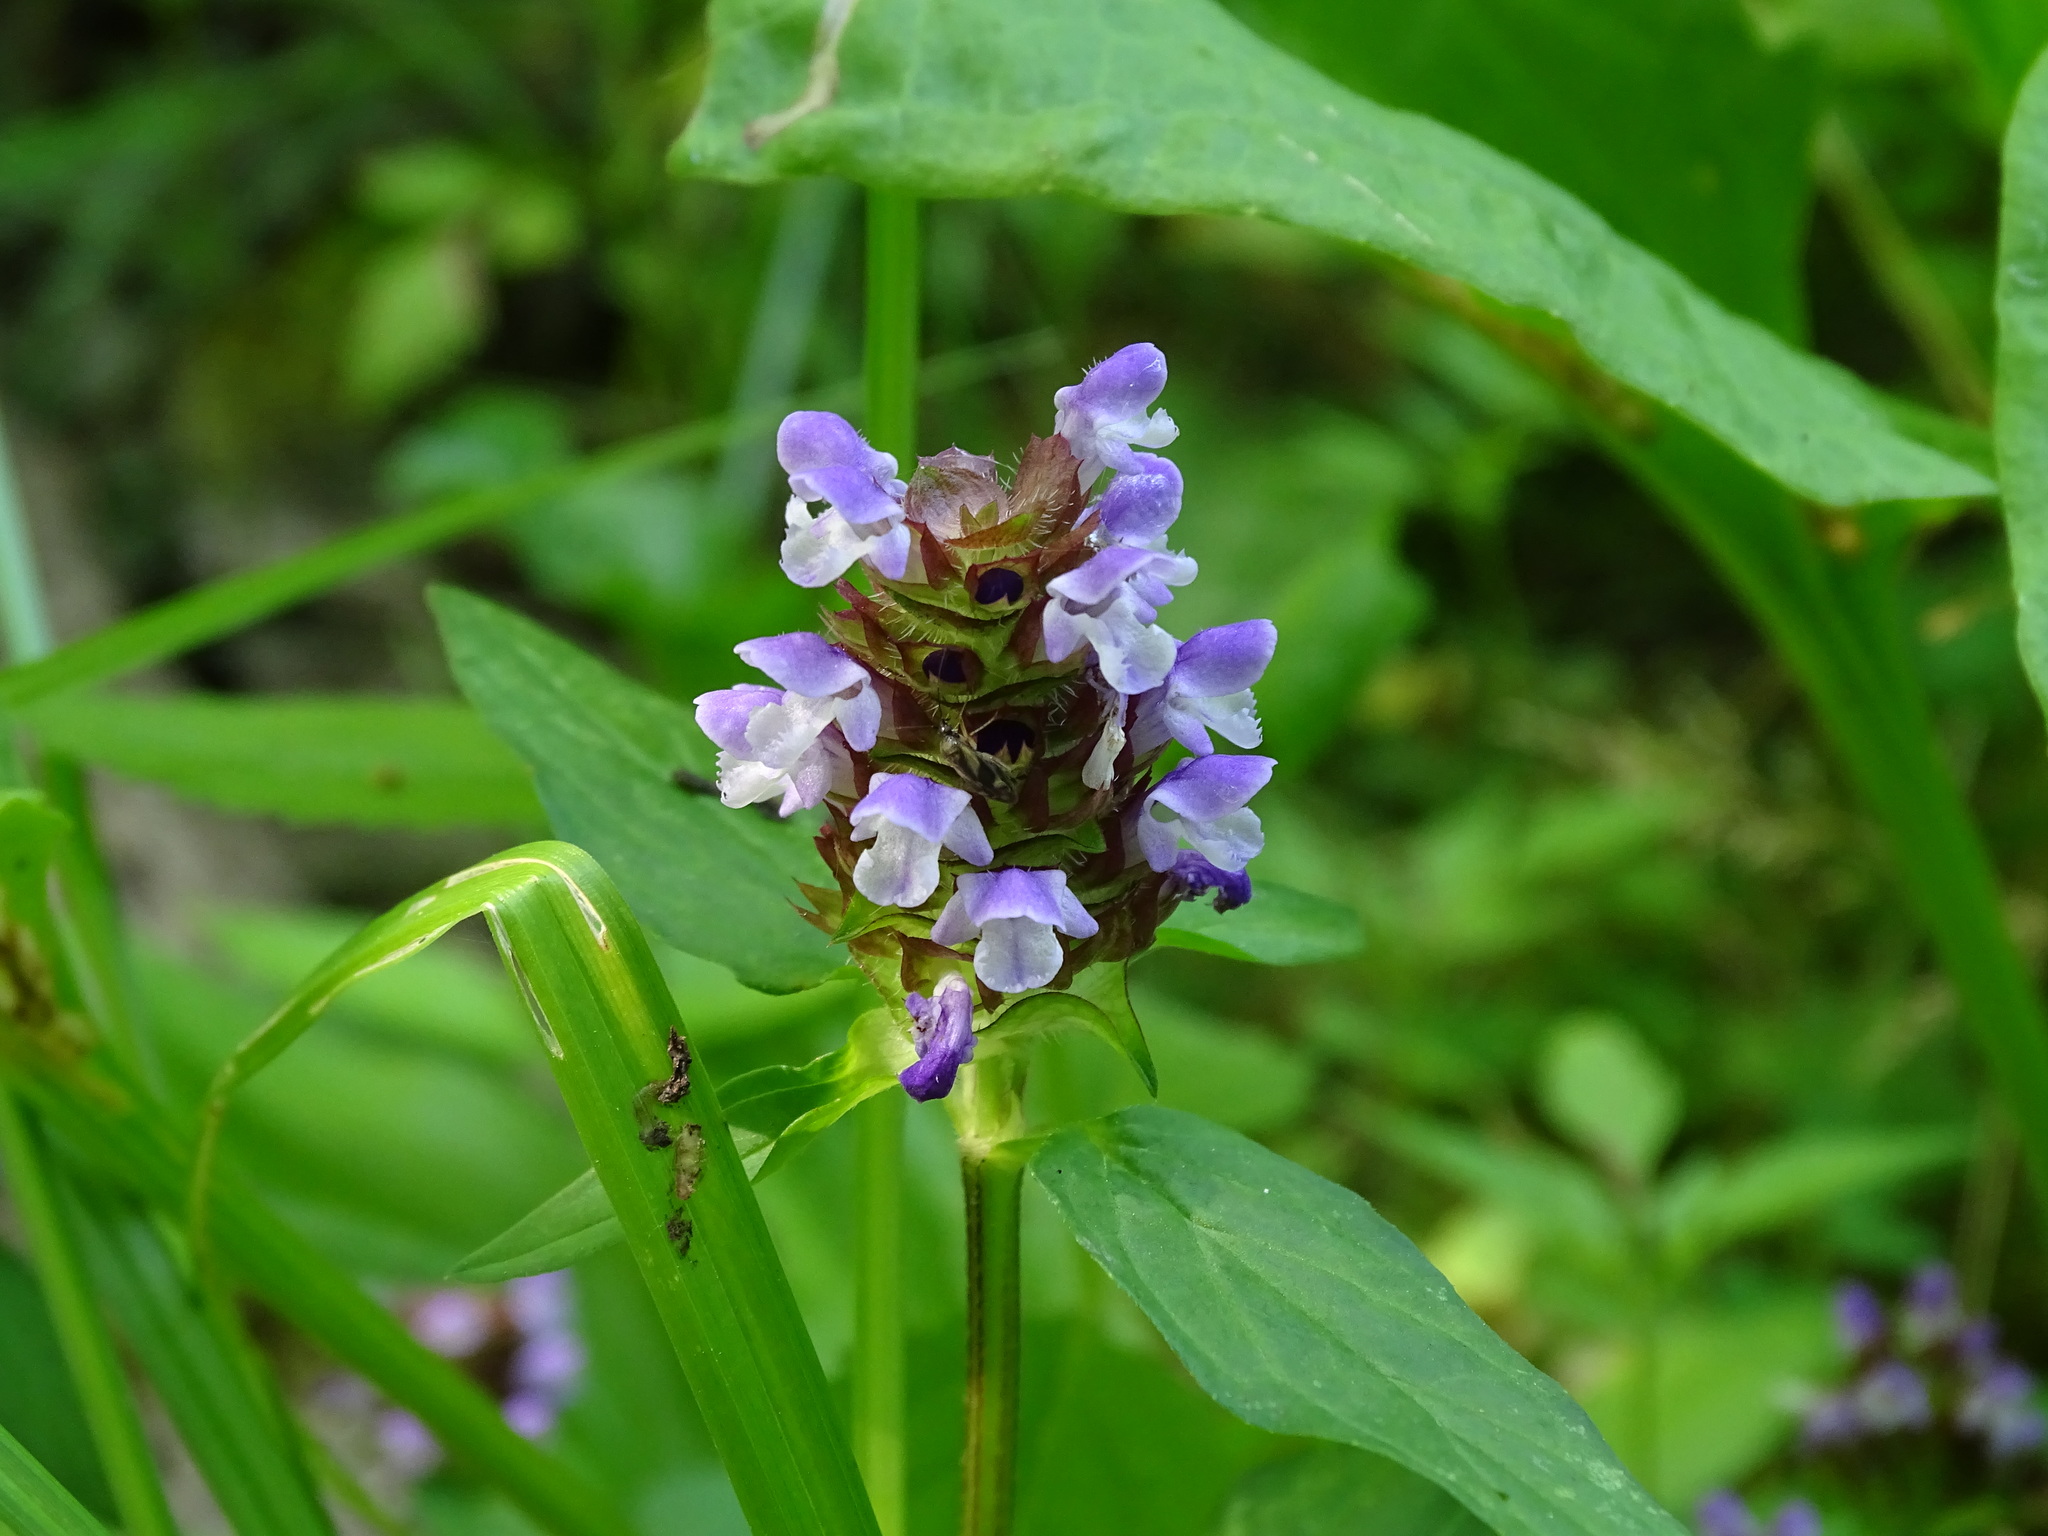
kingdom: Plantae
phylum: Tracheophyta
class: Magnoliopsida
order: Lamiales
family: Lamiaceae
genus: Prunella
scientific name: Prunella vulgaris
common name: Heal-all
